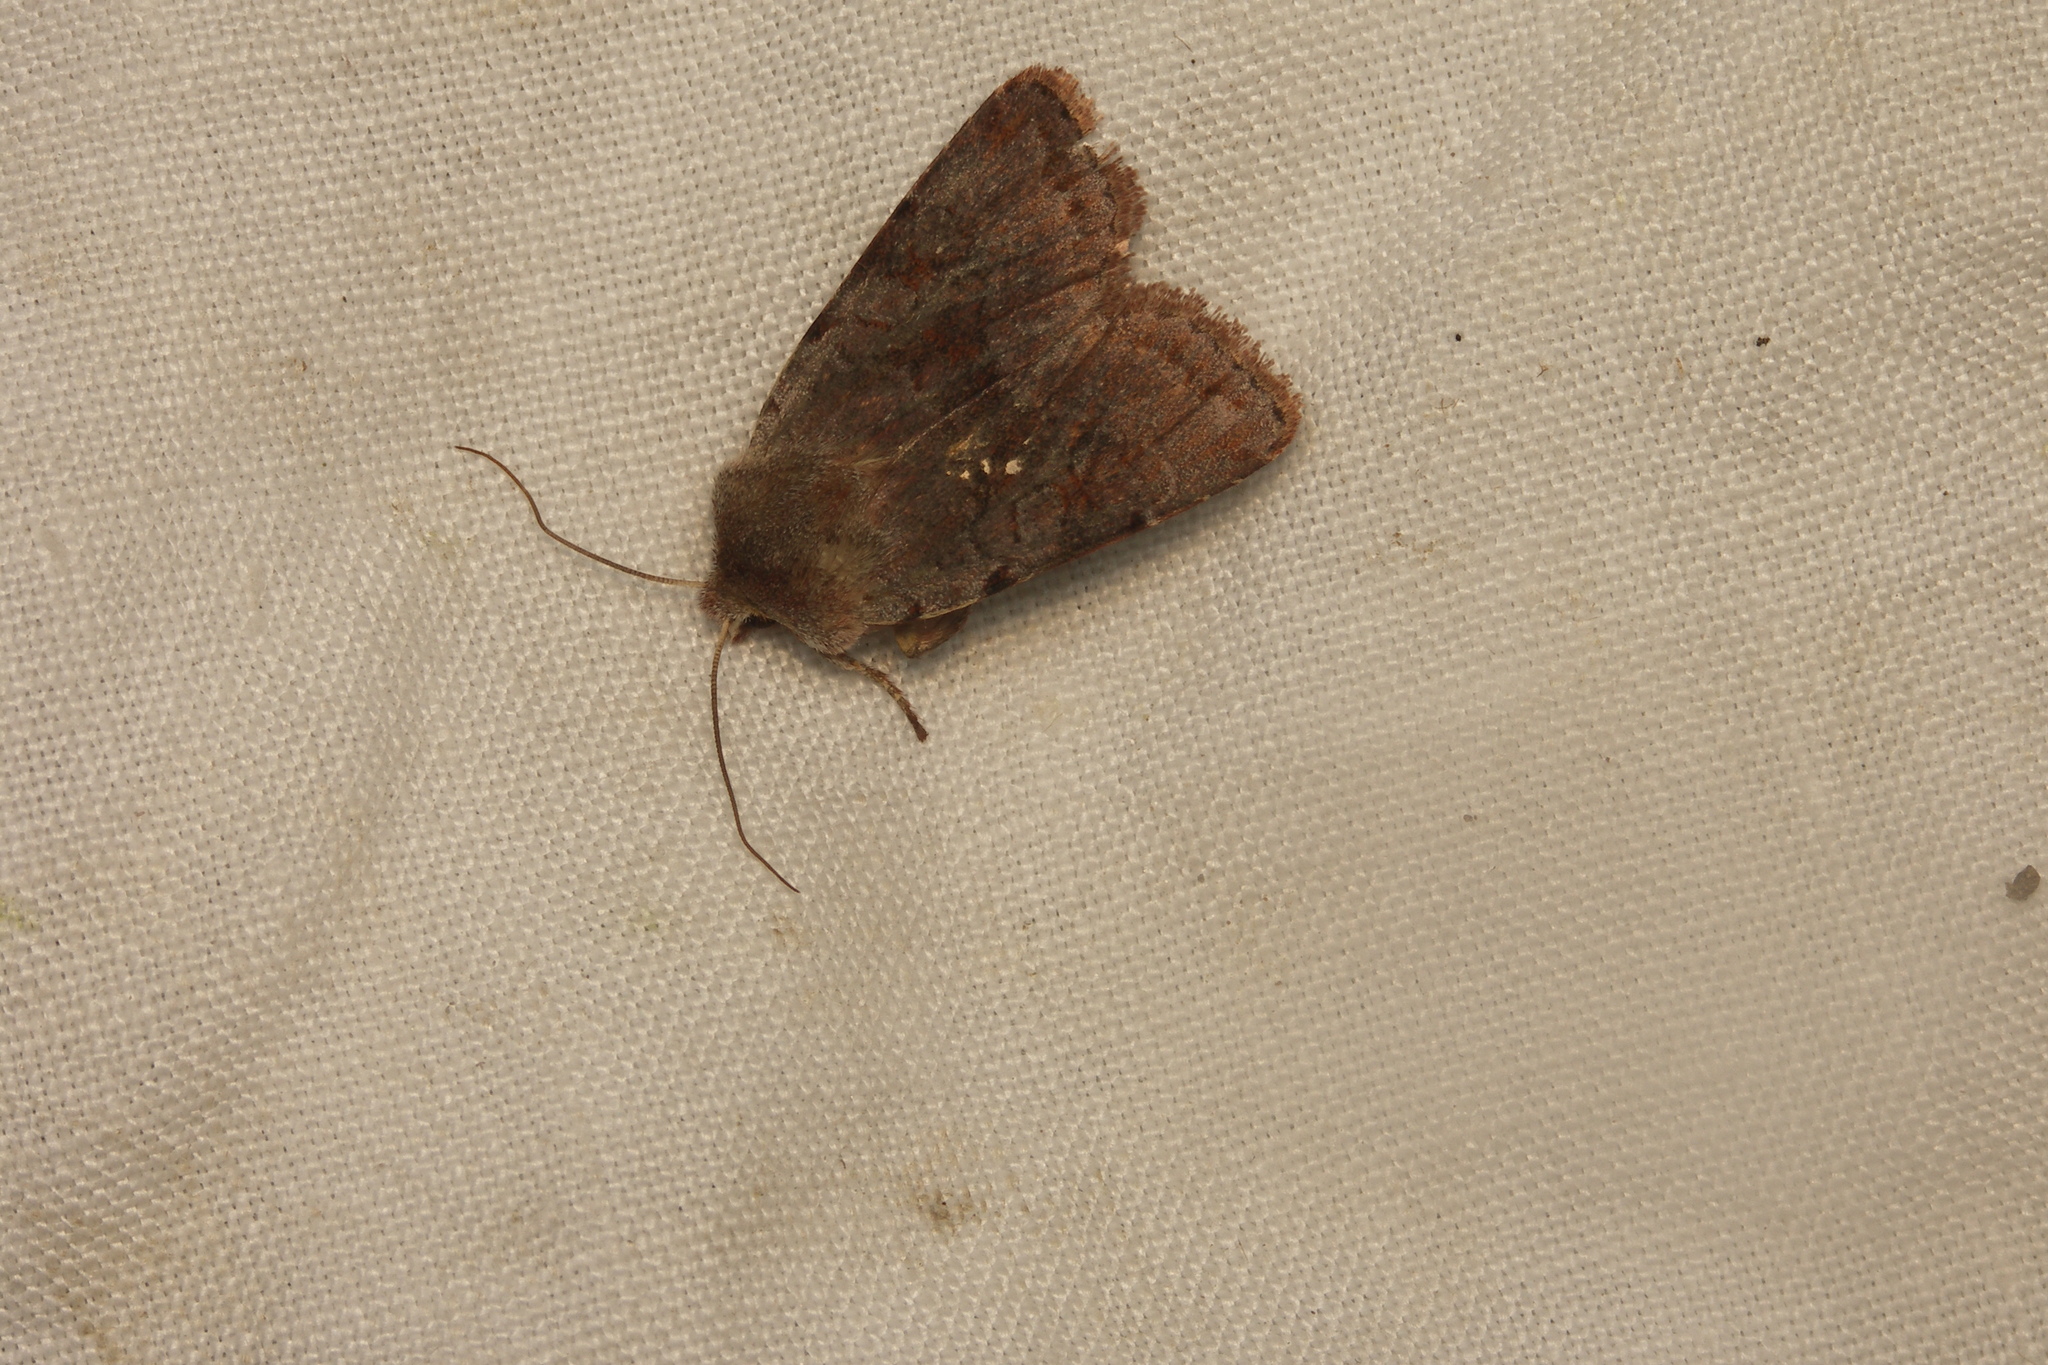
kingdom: Animalia
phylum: Arthropoda
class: Insecta
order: Lepidoptera
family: Noctuidae
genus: Cerastis
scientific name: Cerastis rubricosa
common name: Red chestnut
